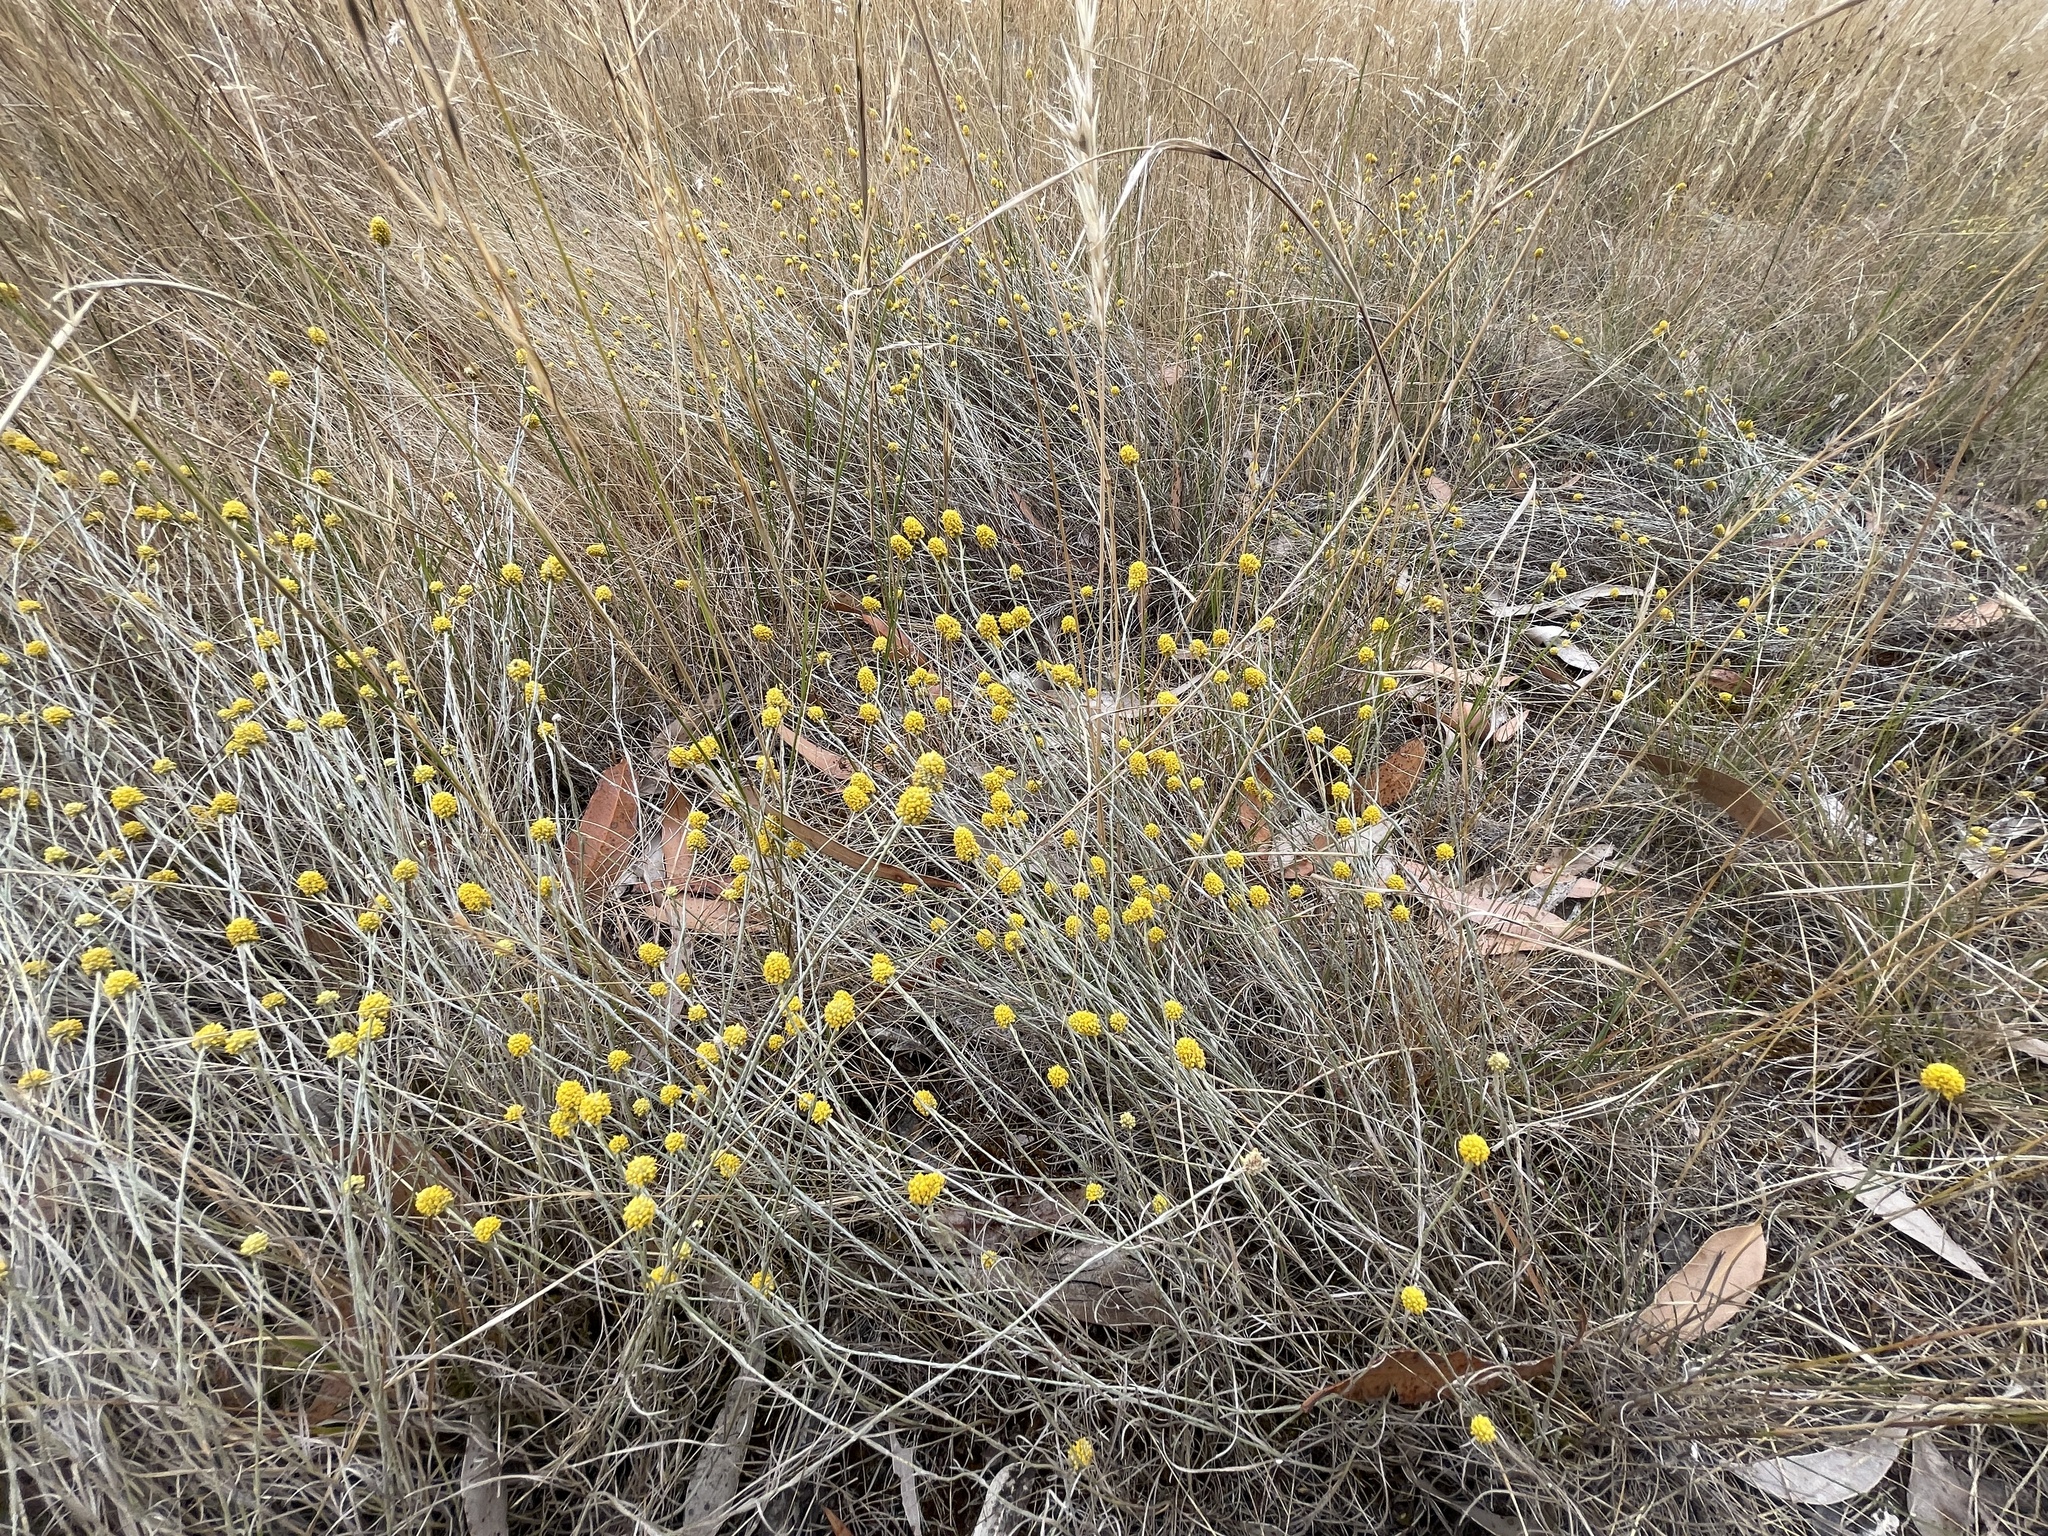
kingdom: Plantae
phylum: Tracheophyta
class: Magnoliopsida
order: Asterales
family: Asteraceae
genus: Calocephalus
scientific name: Calocephalus citreus
